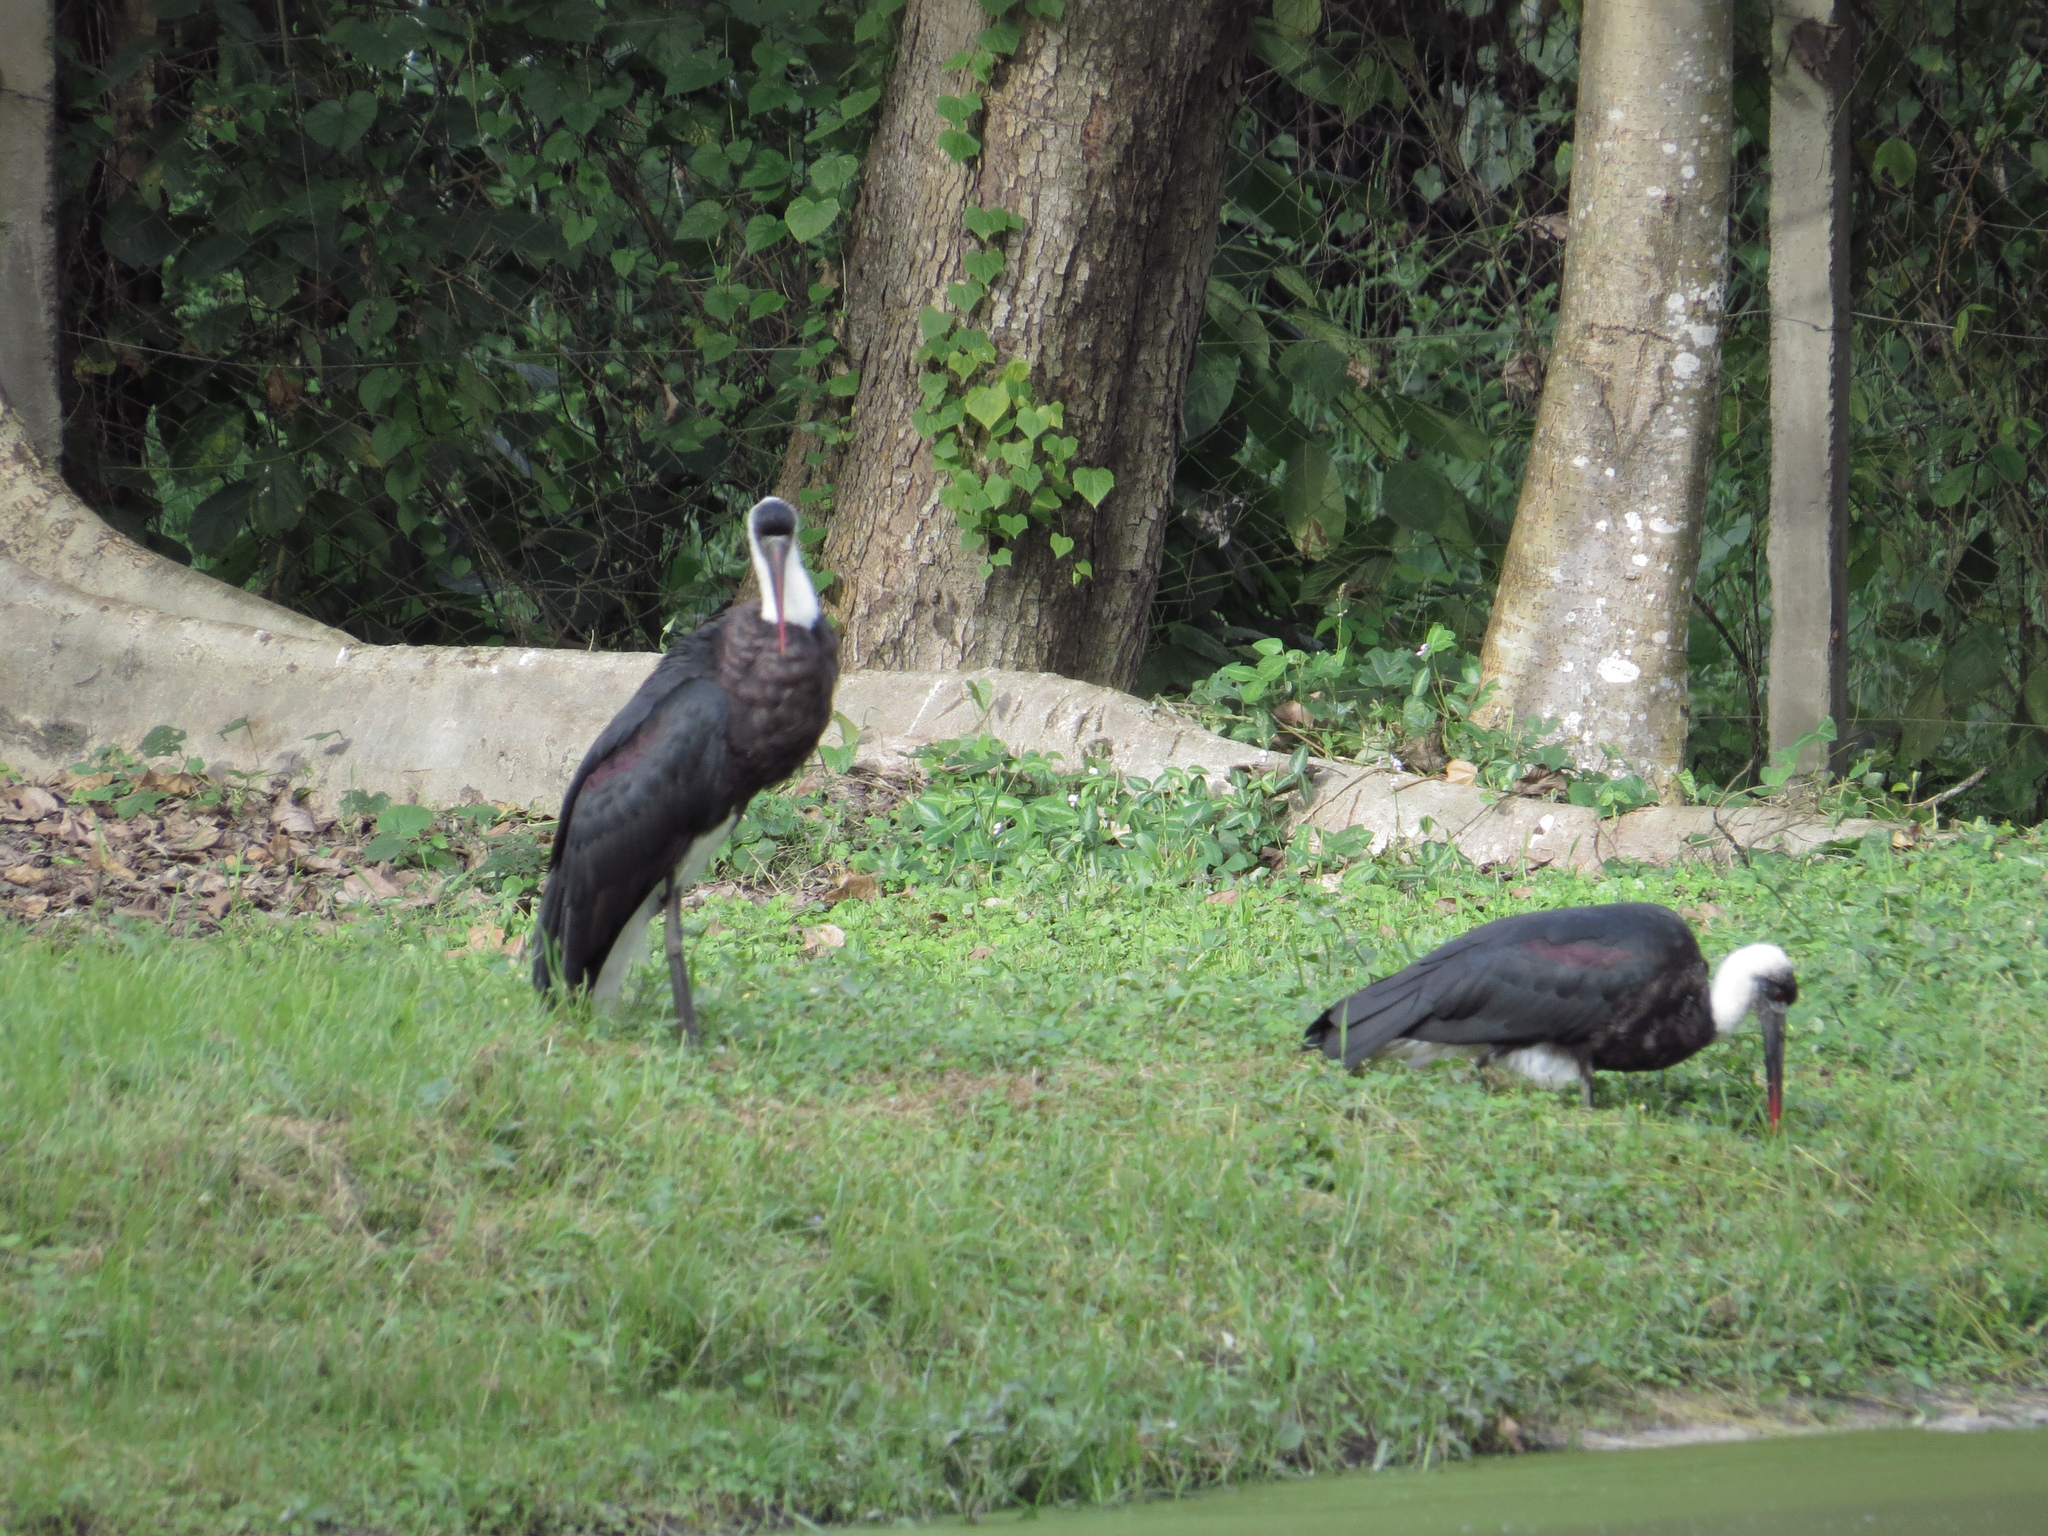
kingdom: Animalia
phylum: Chordata
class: Aves
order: Ciconiiformes
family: Ciconiidae
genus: Ciconia
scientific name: Ciconia microscelis
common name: African woollyneck
